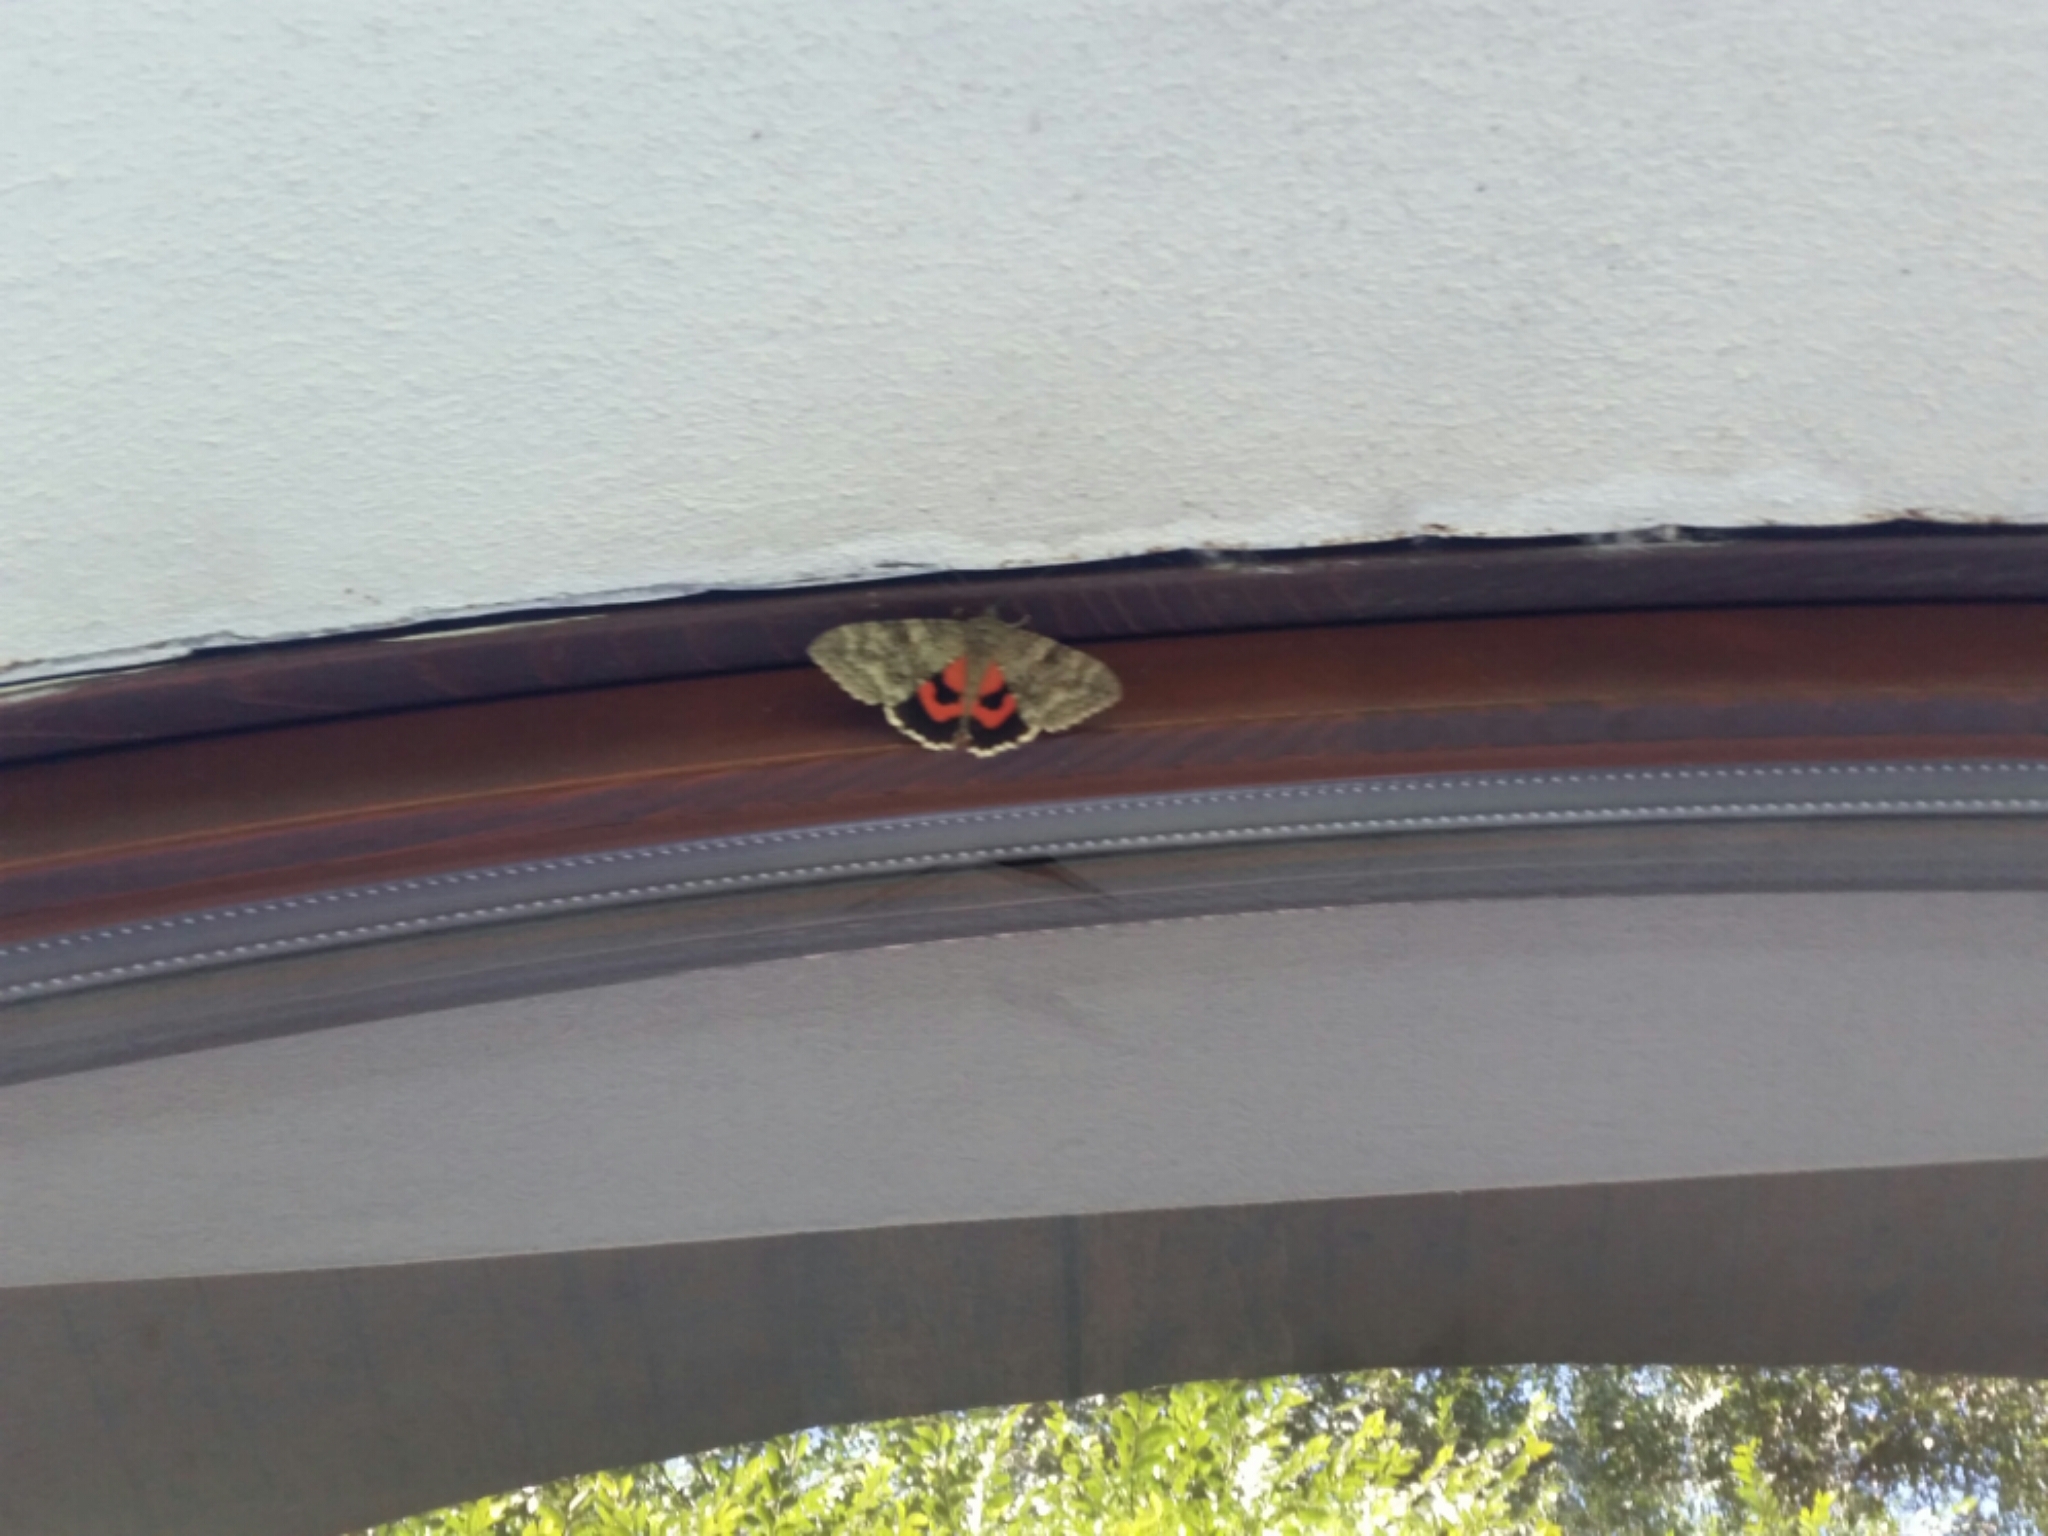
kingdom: Animalia
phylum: Arthropoda
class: Insecta
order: Lepidoptera
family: Erebidae
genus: Catocala
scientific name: Catocala nupta
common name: Red underwing
